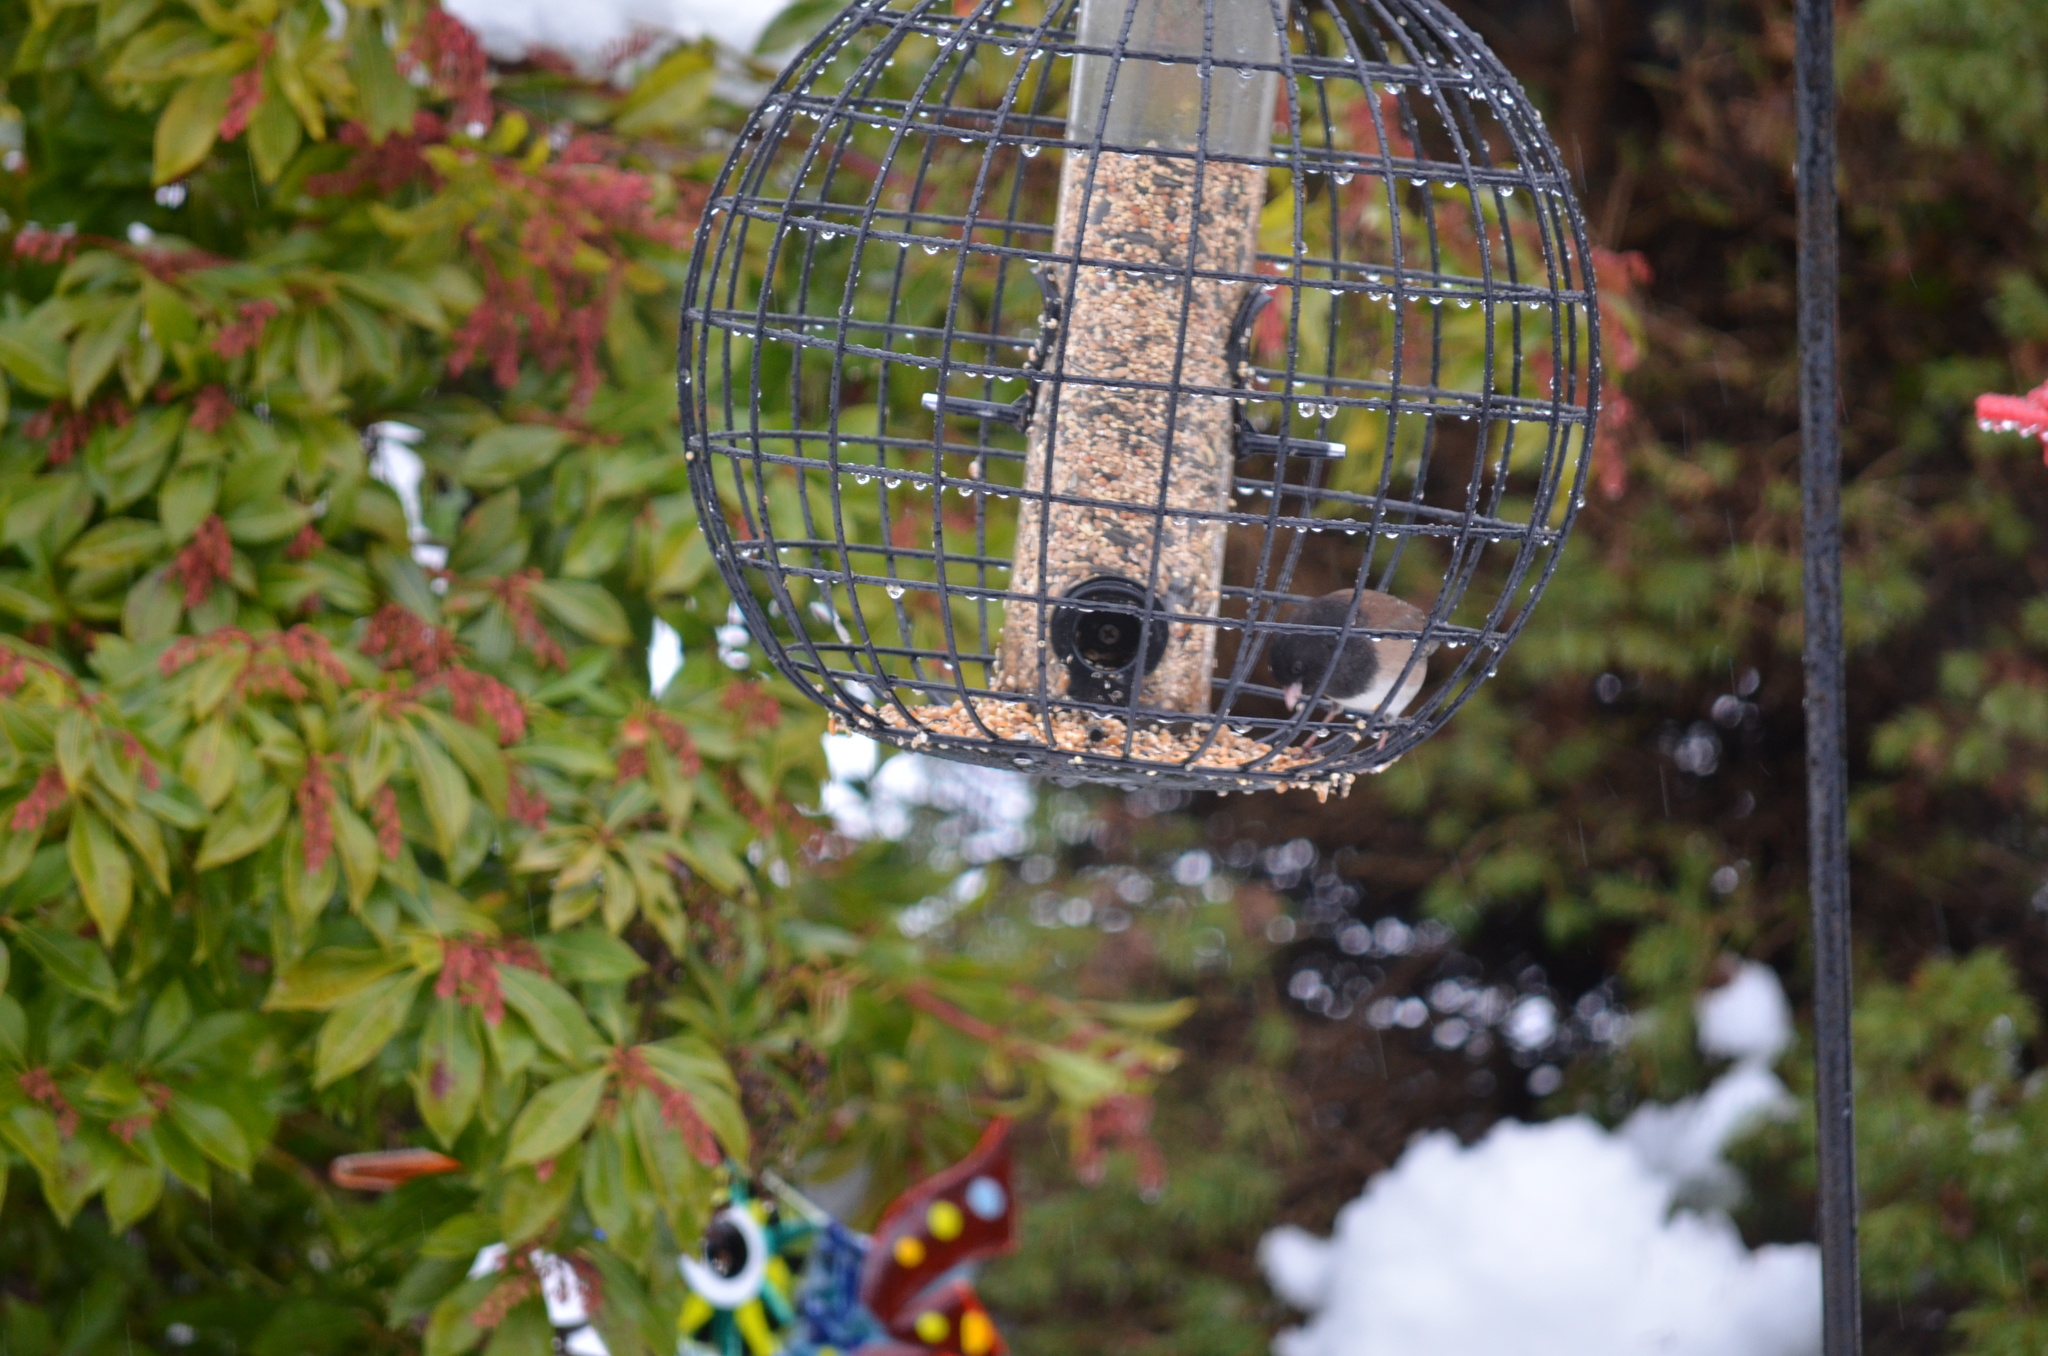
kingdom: Animalia
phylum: Chordata
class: Aves
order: Passeriformes
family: Passerellidae
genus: Junco
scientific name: Junco hyemalis
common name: Dark-eyed junco
